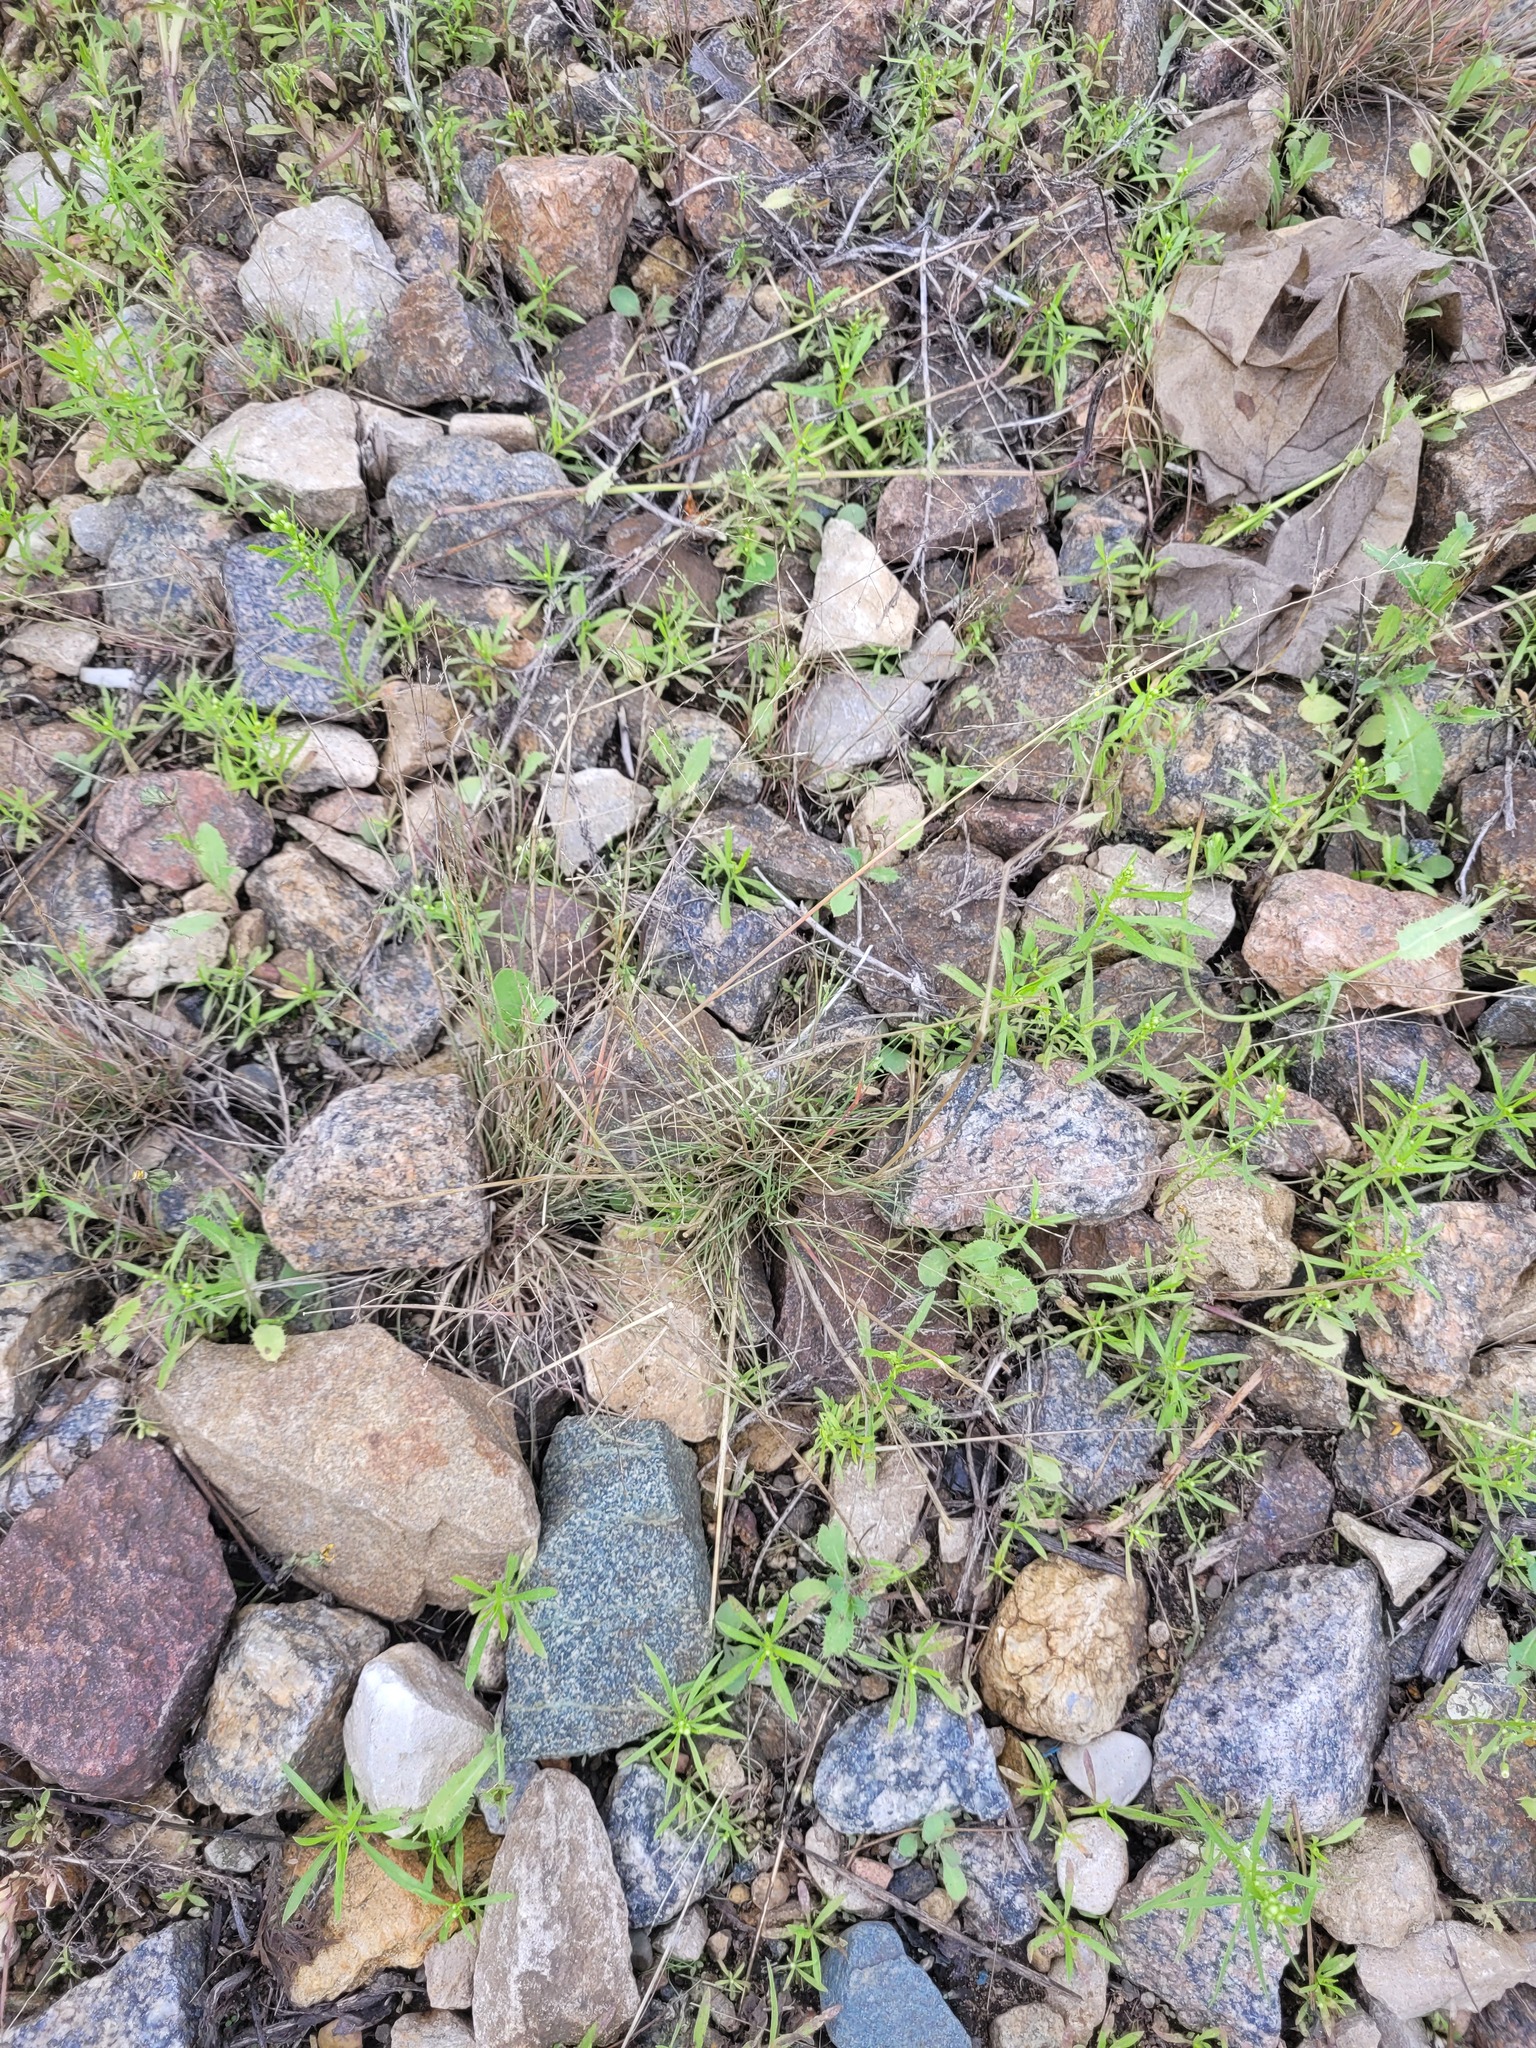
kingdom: Plantae
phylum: Tracheophyta
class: Liliopsida
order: Poales
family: Poaceae
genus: Puccinellia
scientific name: Puccinellia distans
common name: Weeping alkaligrass
